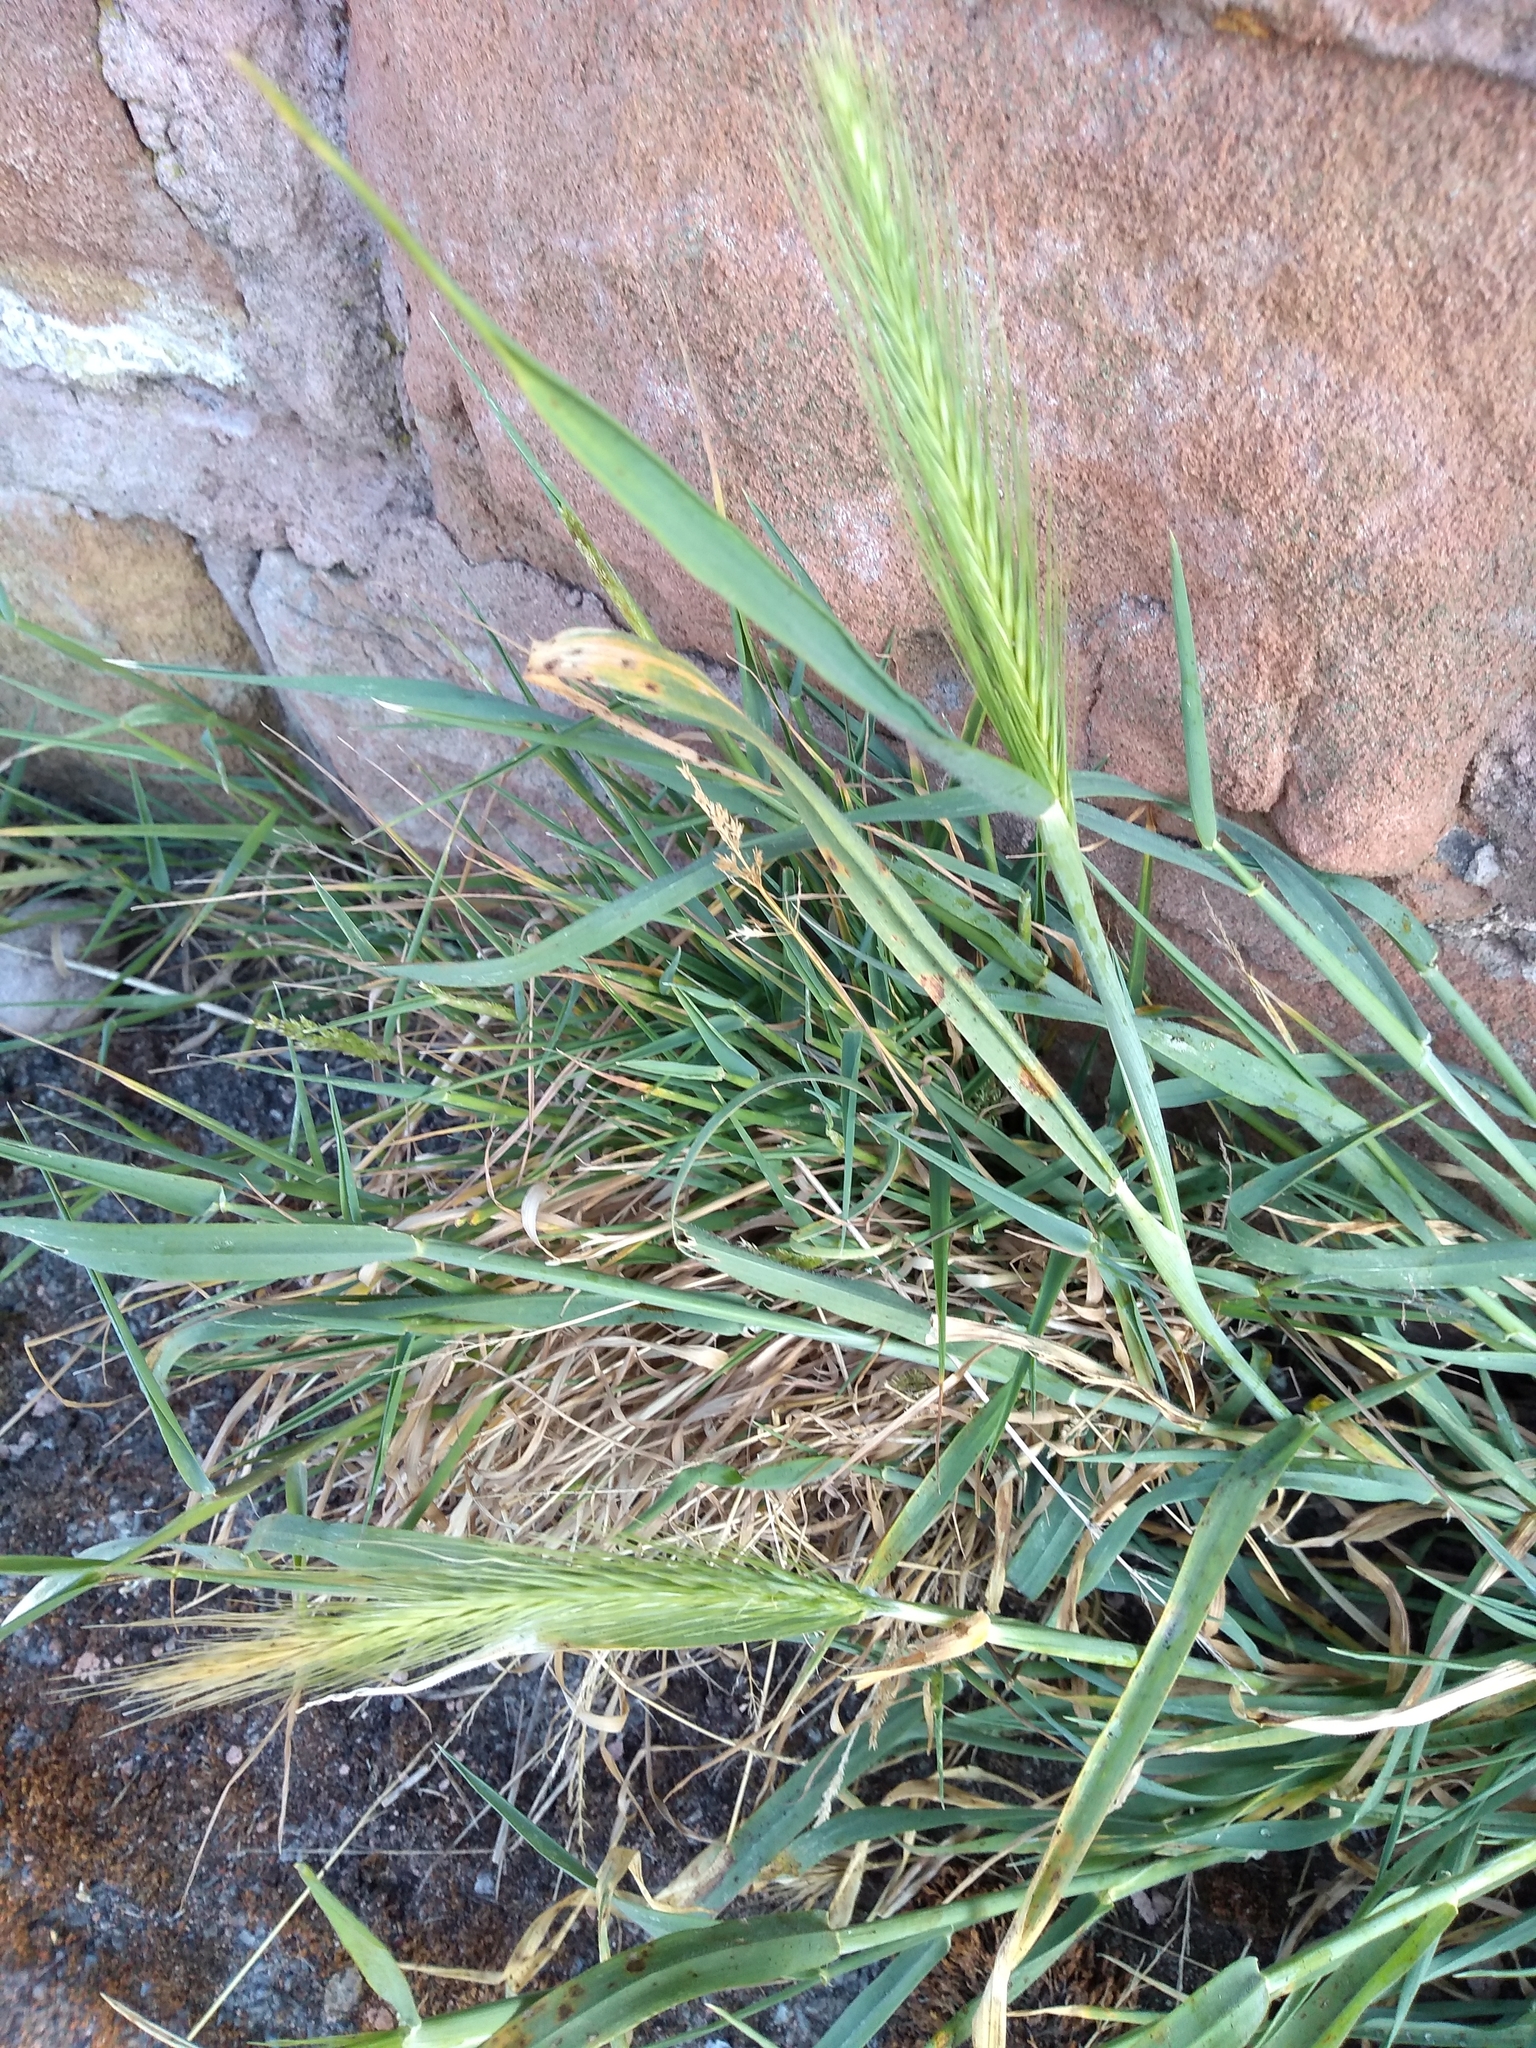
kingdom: Plantae
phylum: Tracheophyta
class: Liliopsida
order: Poales
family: Poaceae
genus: Hordeum
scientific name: Hordeum murinum
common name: Wall barley
